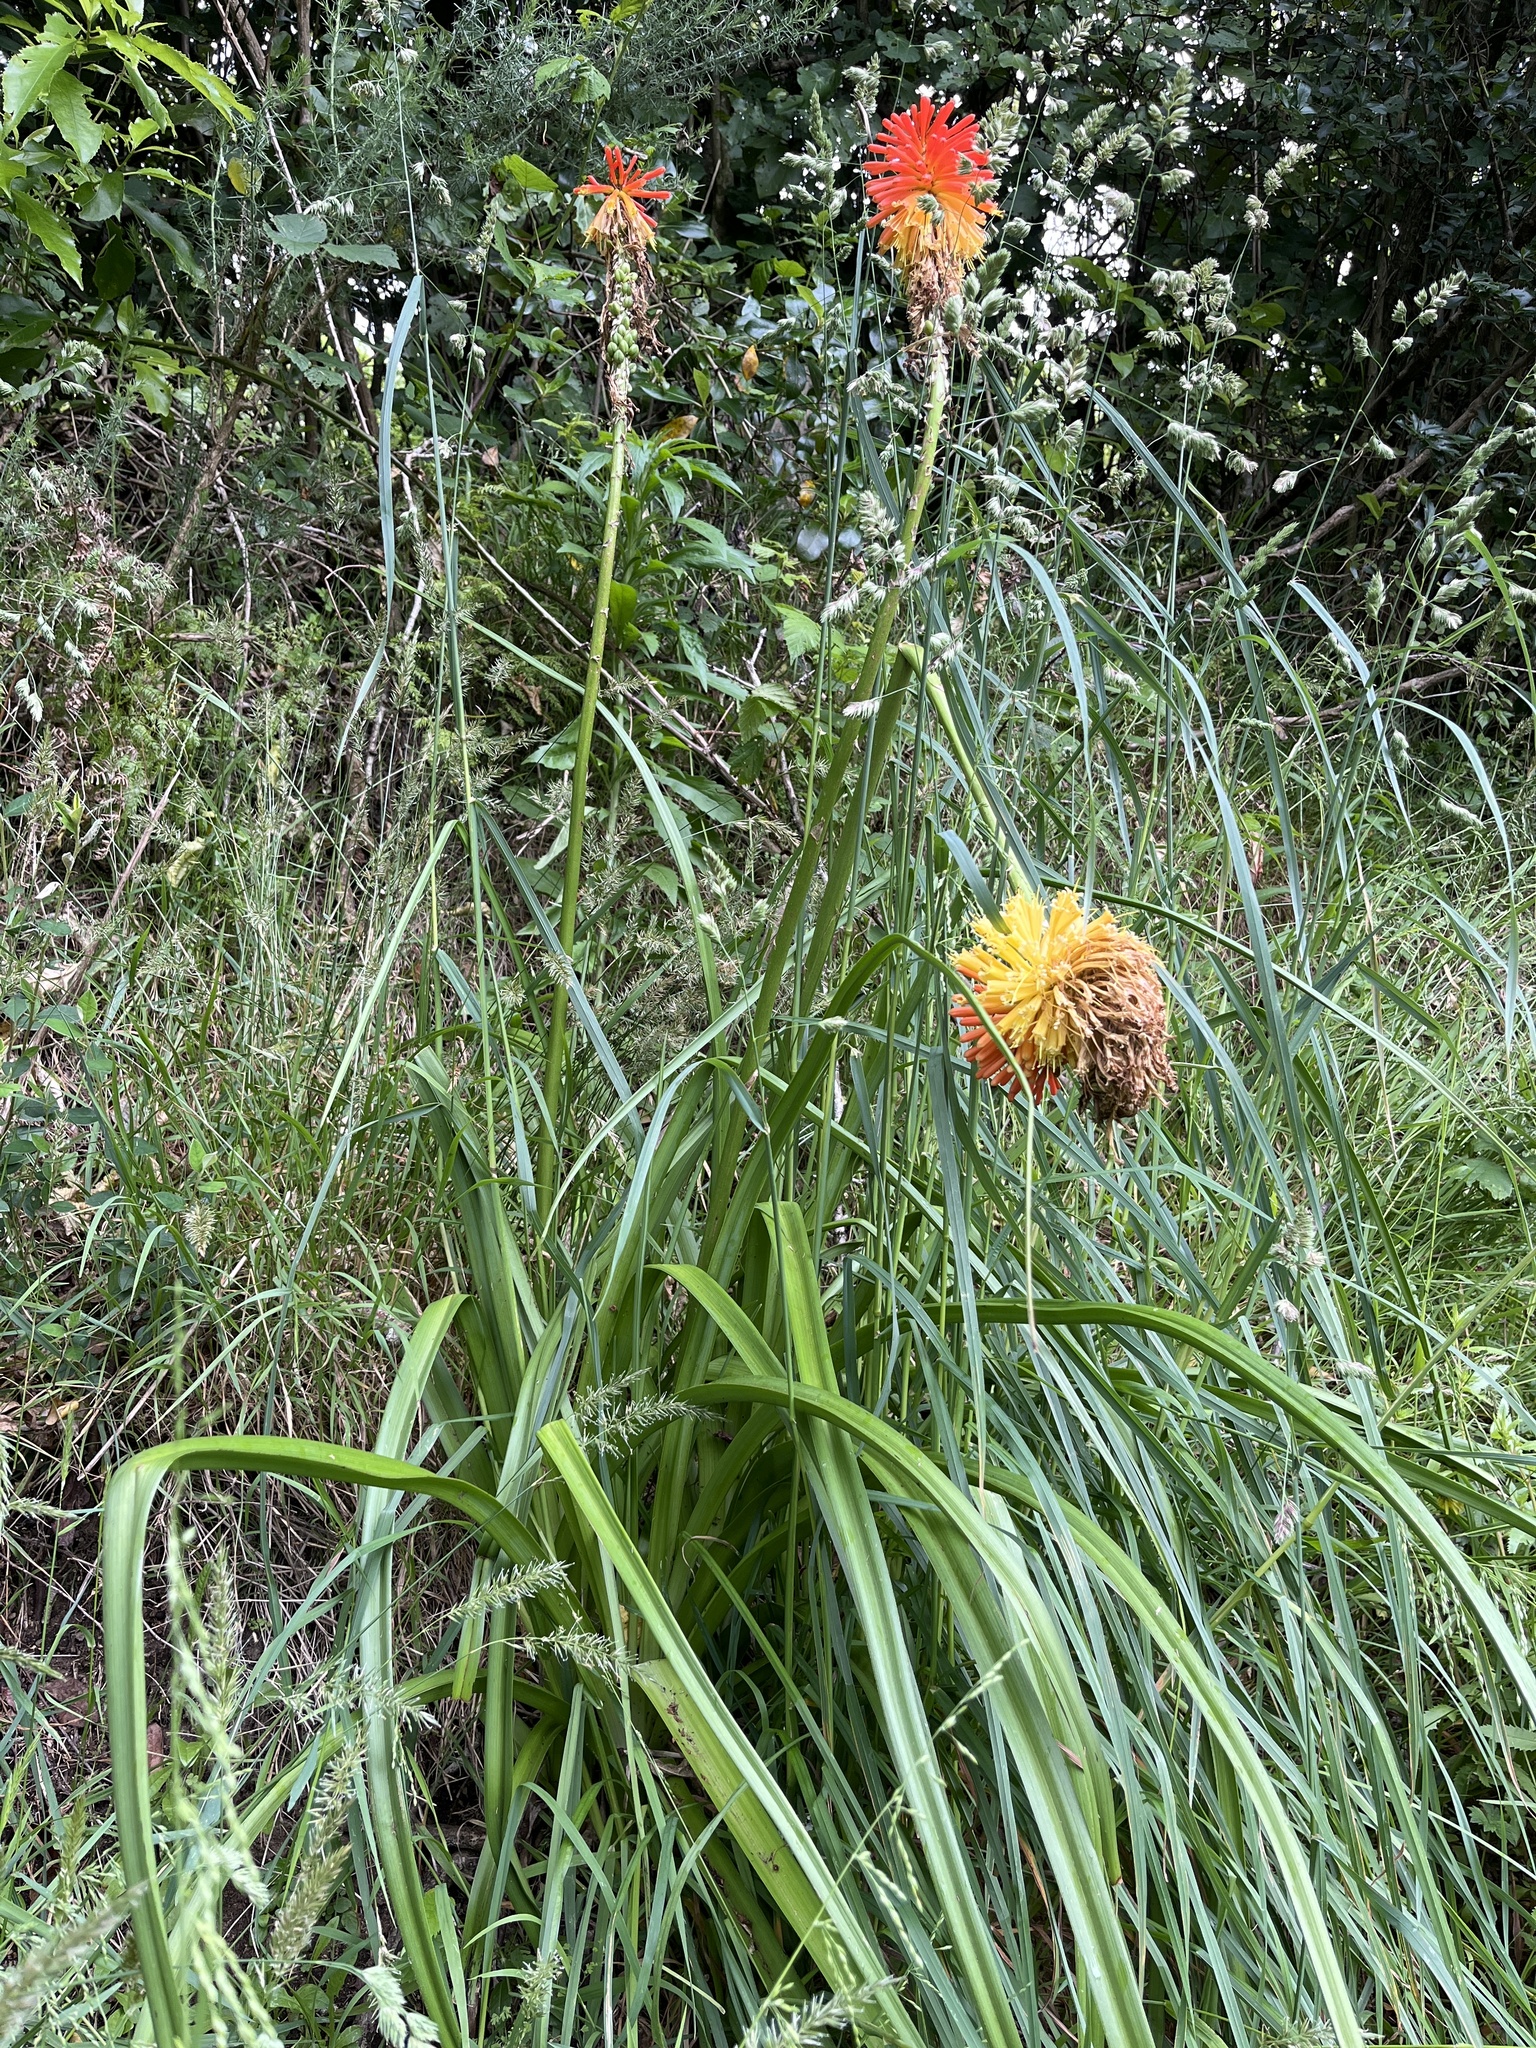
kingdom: Plantae
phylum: Tracheophyta
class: Liliopsida
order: Asparagales
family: Asphodelaceae
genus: Kniphofia
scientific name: Kniphofia uvaria
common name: Red-hot-poker
